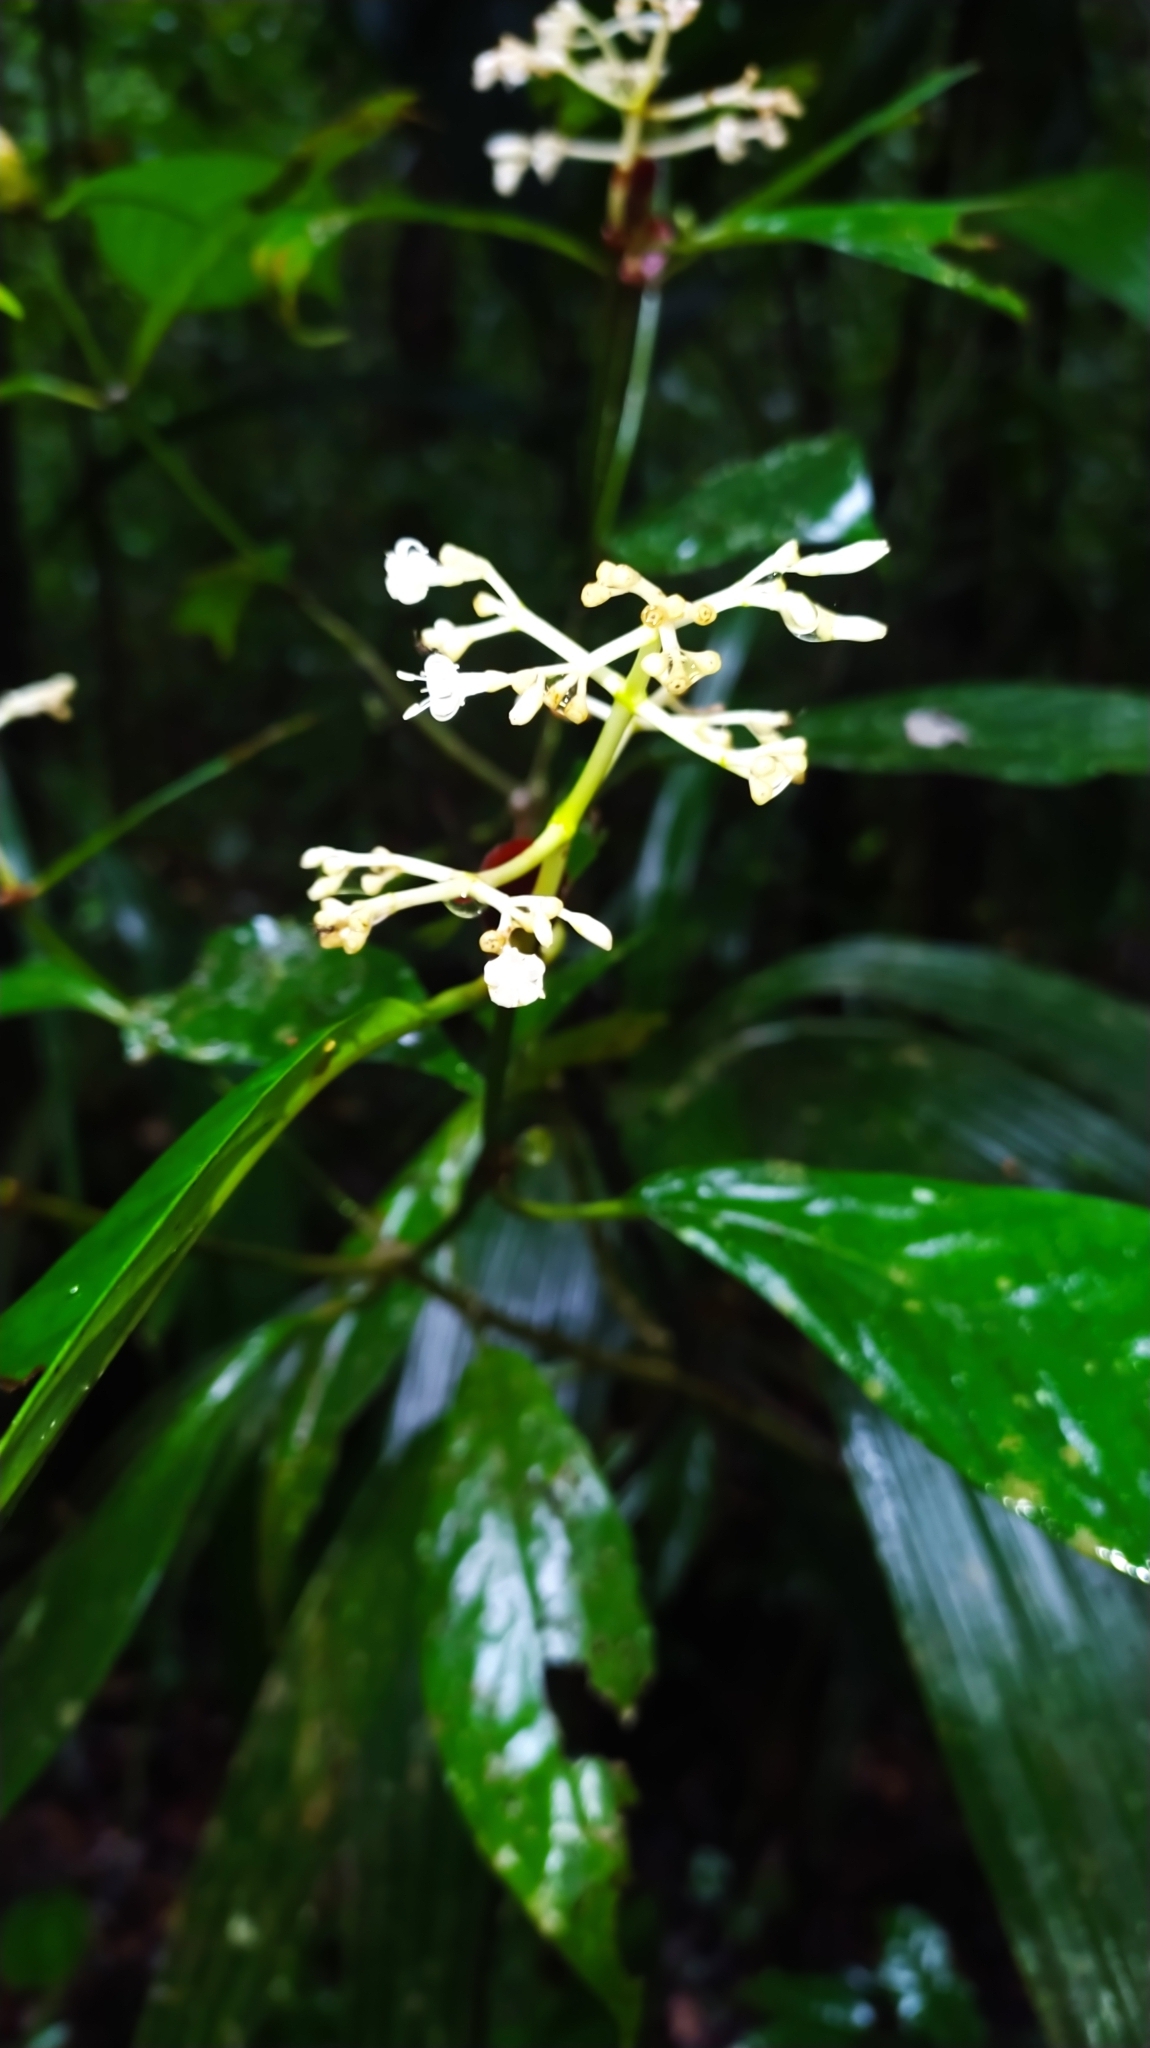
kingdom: Plantae
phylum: Tracheophyta
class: Magnoliopsida
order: Gentianales
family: Rubiaceae
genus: Psychotria
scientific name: Psychotria cupularis
